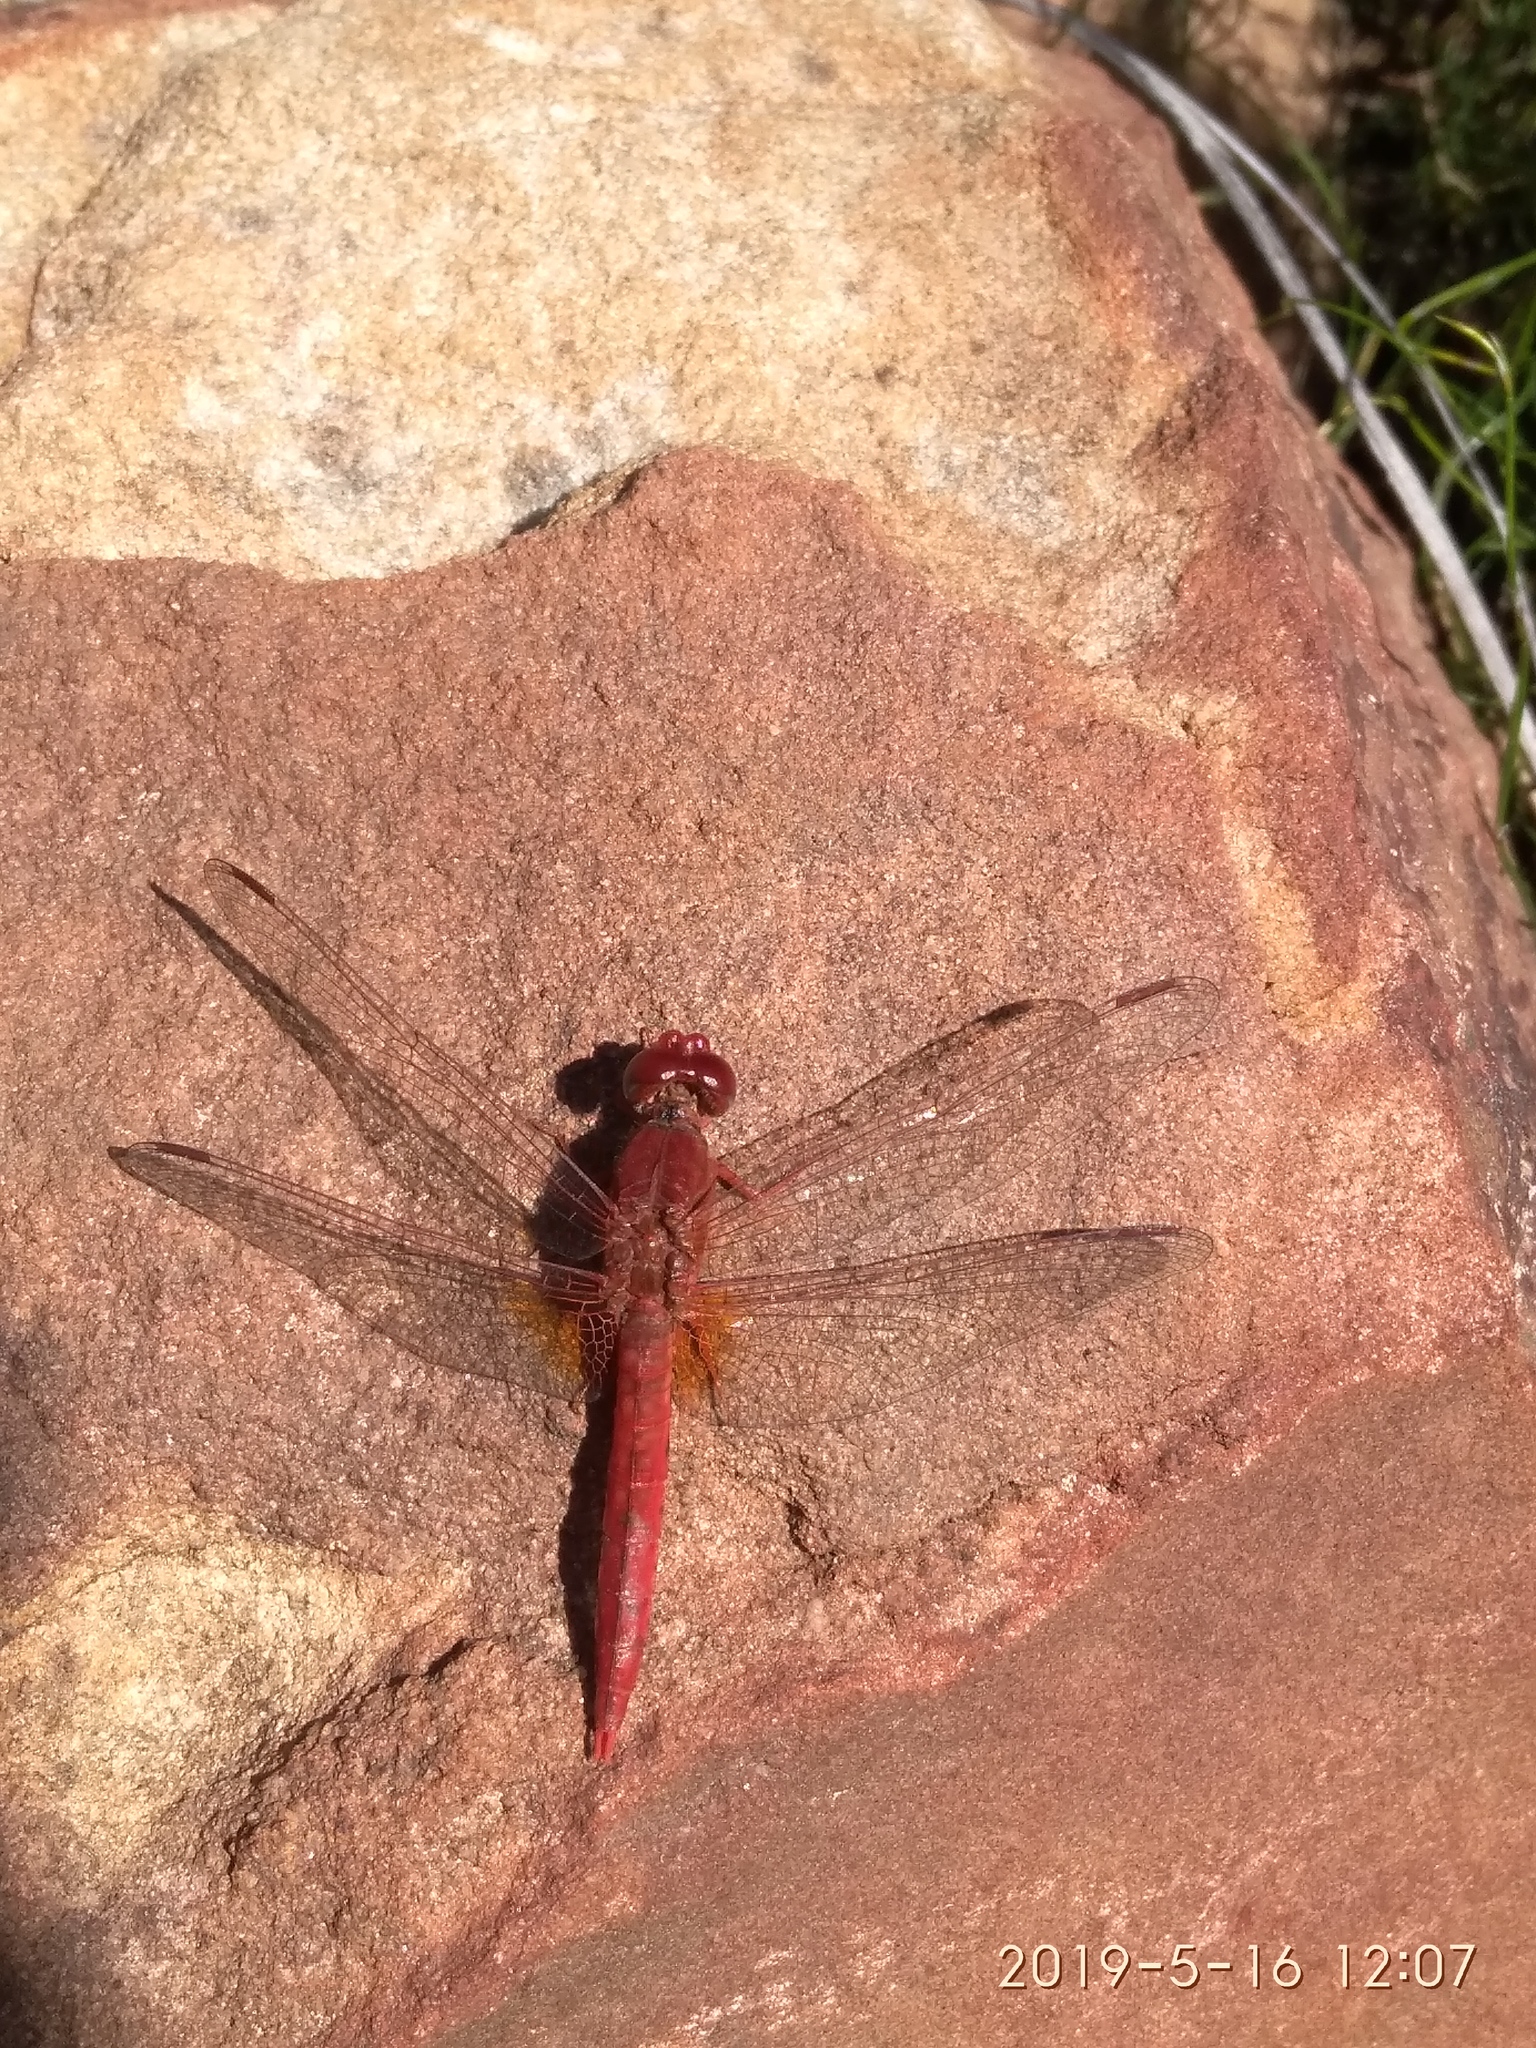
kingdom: Animalia
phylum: Arthropoda
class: Insecta
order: Odonata
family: Libellulidae
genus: Crocothemis
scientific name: Crocothemis sanguinolenta
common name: Little scarlet
